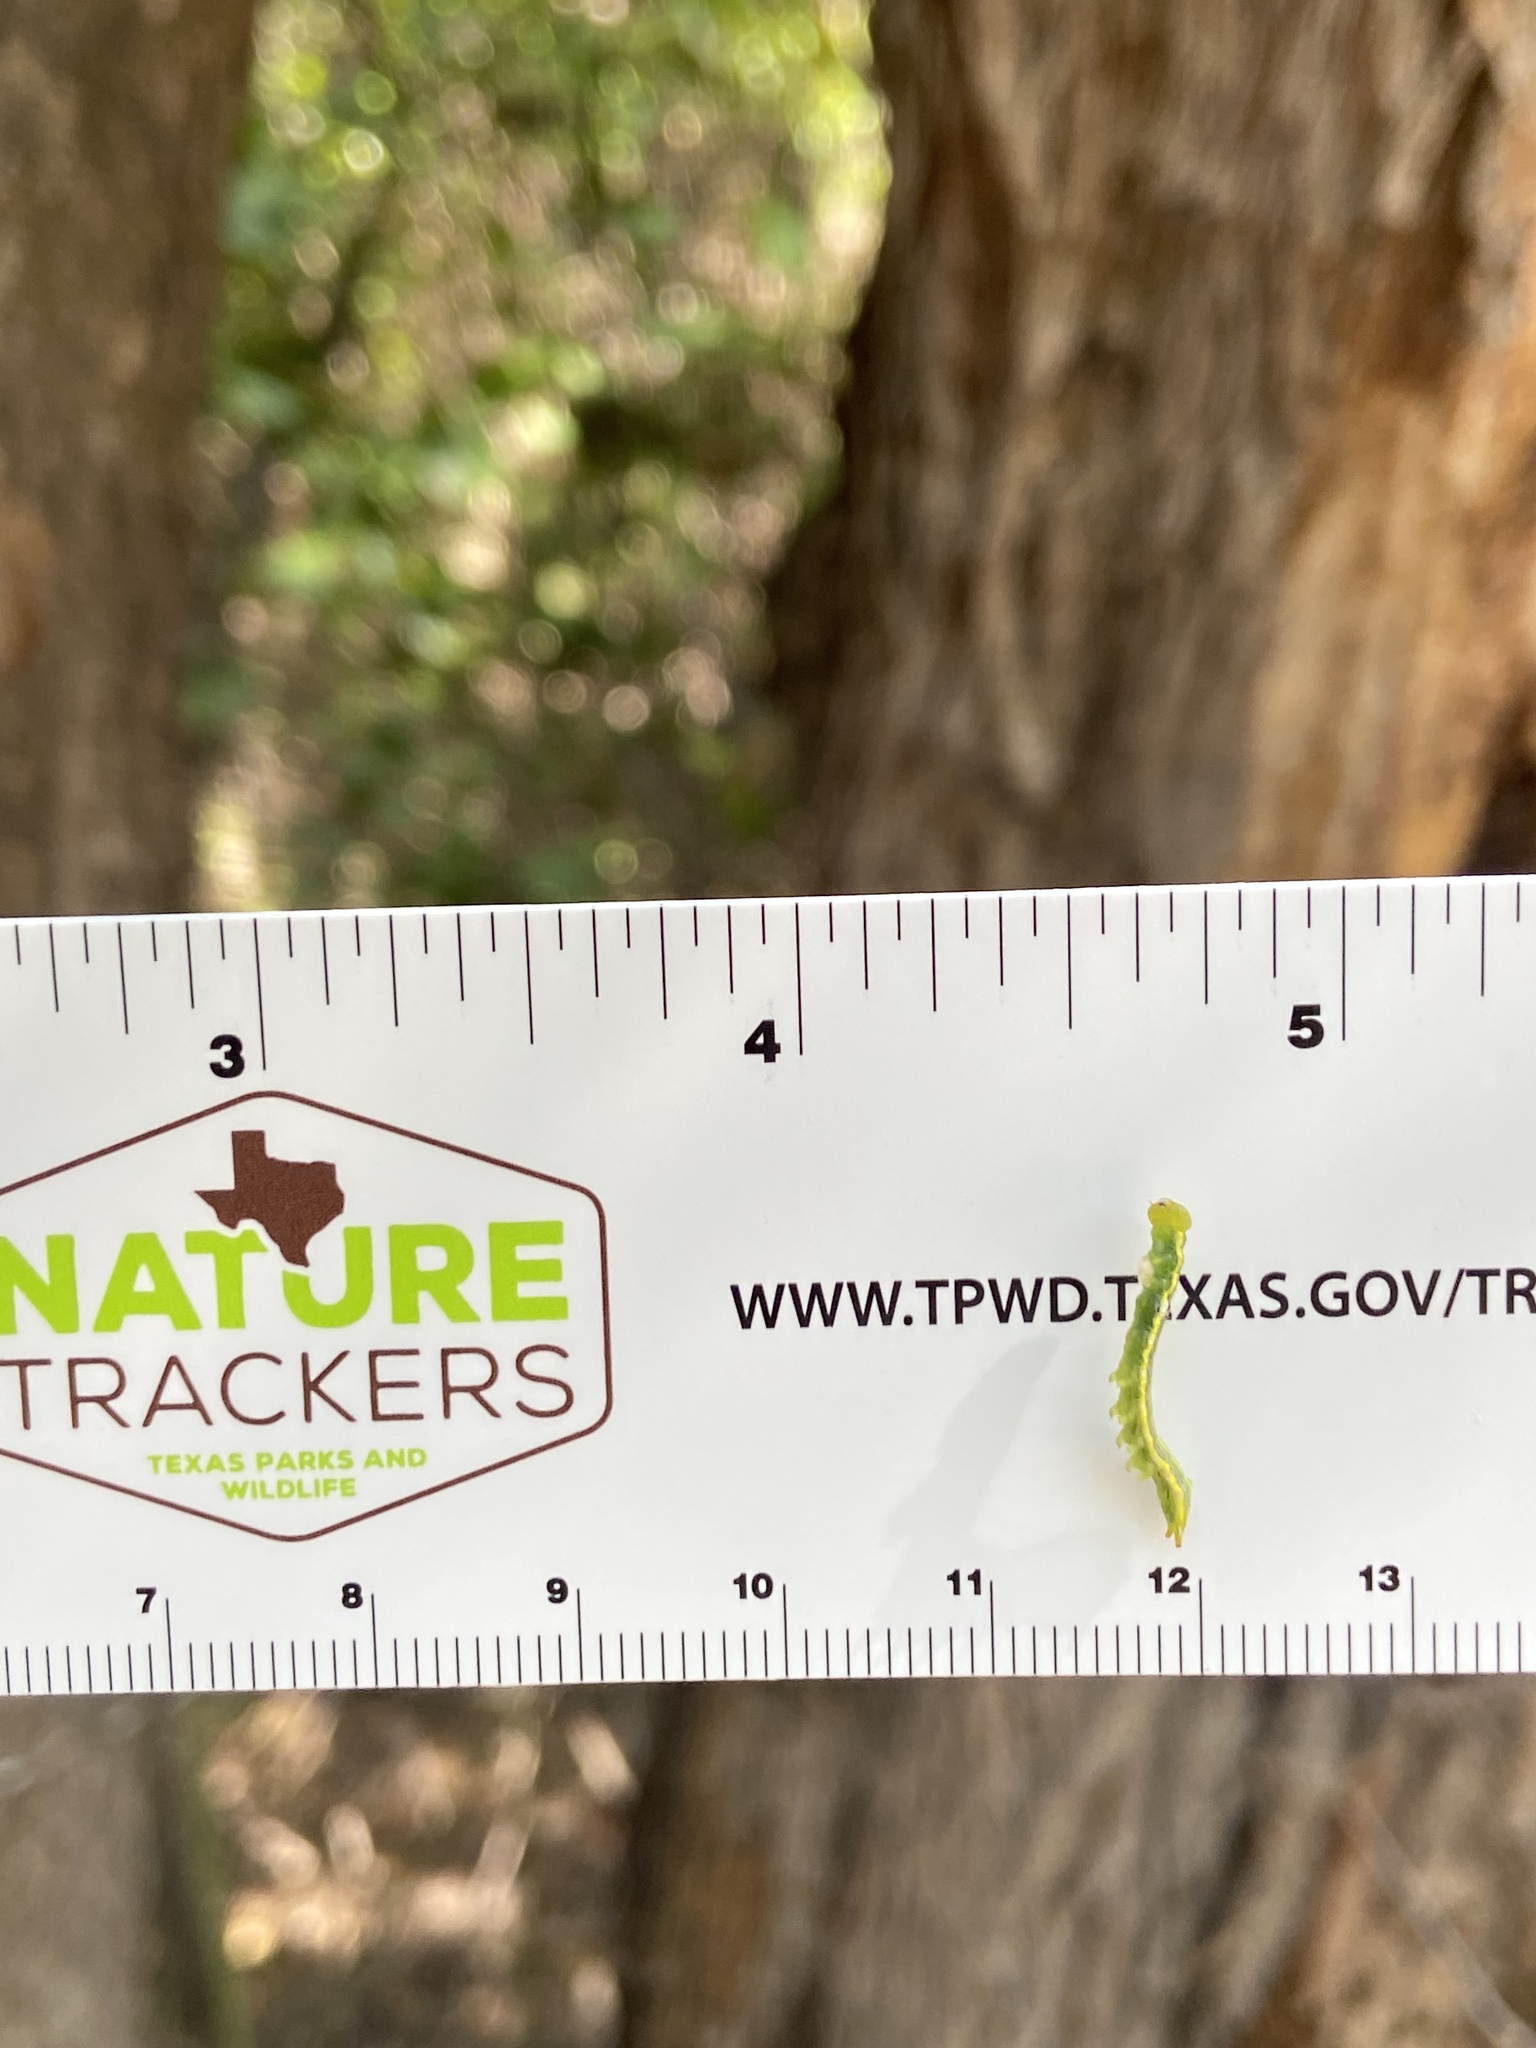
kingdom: Animalia
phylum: Arthropoda
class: Insecta
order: Lepidoptera
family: Notodontidae
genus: Elasmia
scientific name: Elasmia packardii
